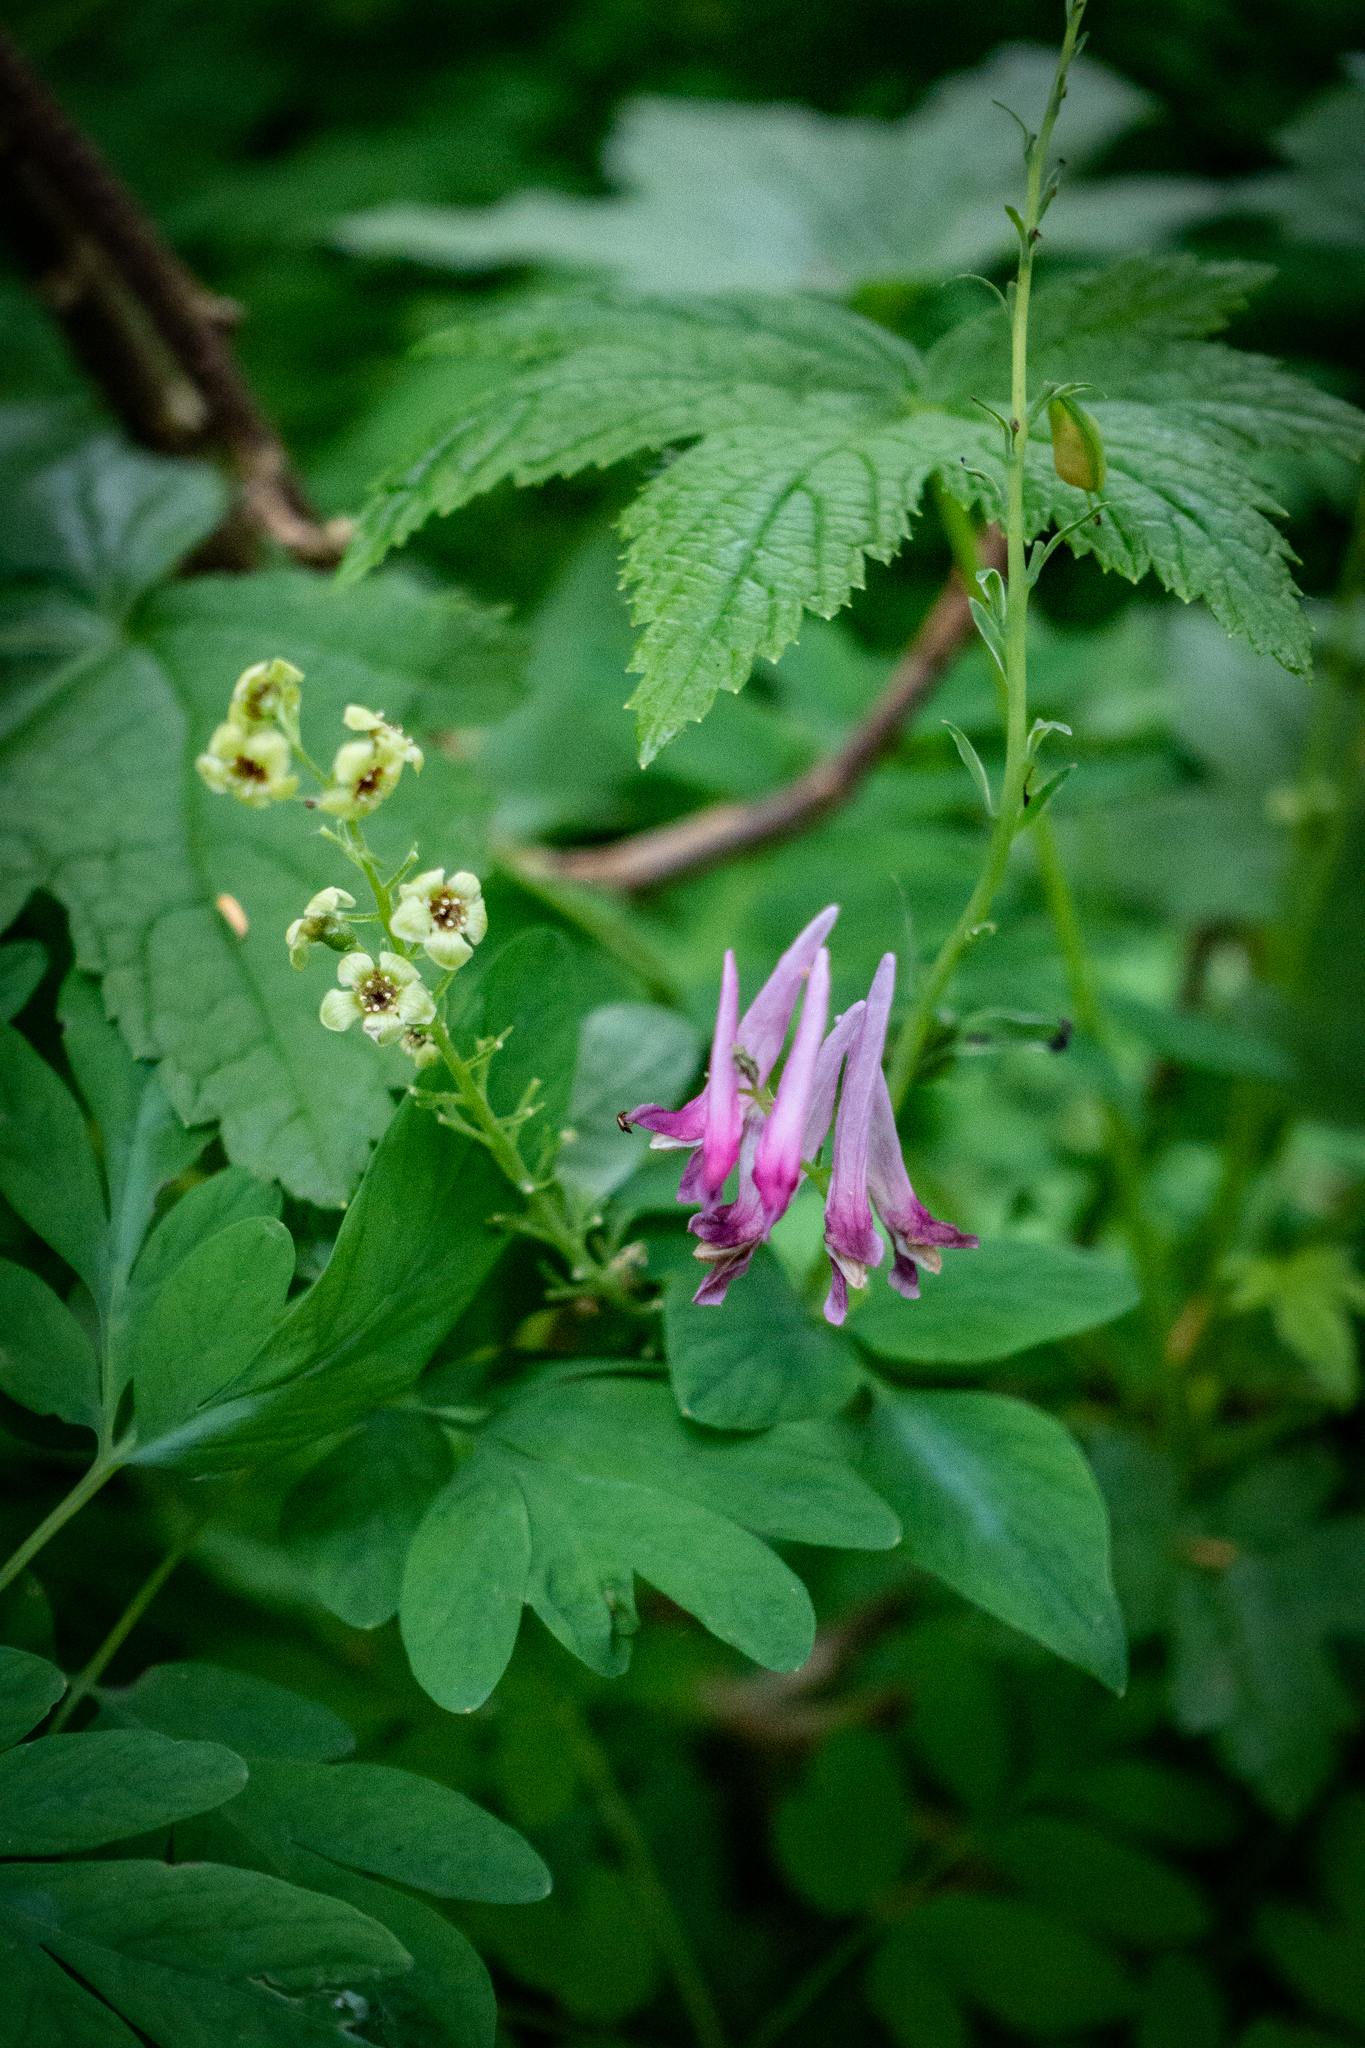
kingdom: Plantae
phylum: Tracheophyta
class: Magnoliopsida
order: Ranunculales
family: Papaveraceae
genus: Corydalis
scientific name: Corydalis scouleri
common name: Scouler's corydalis
